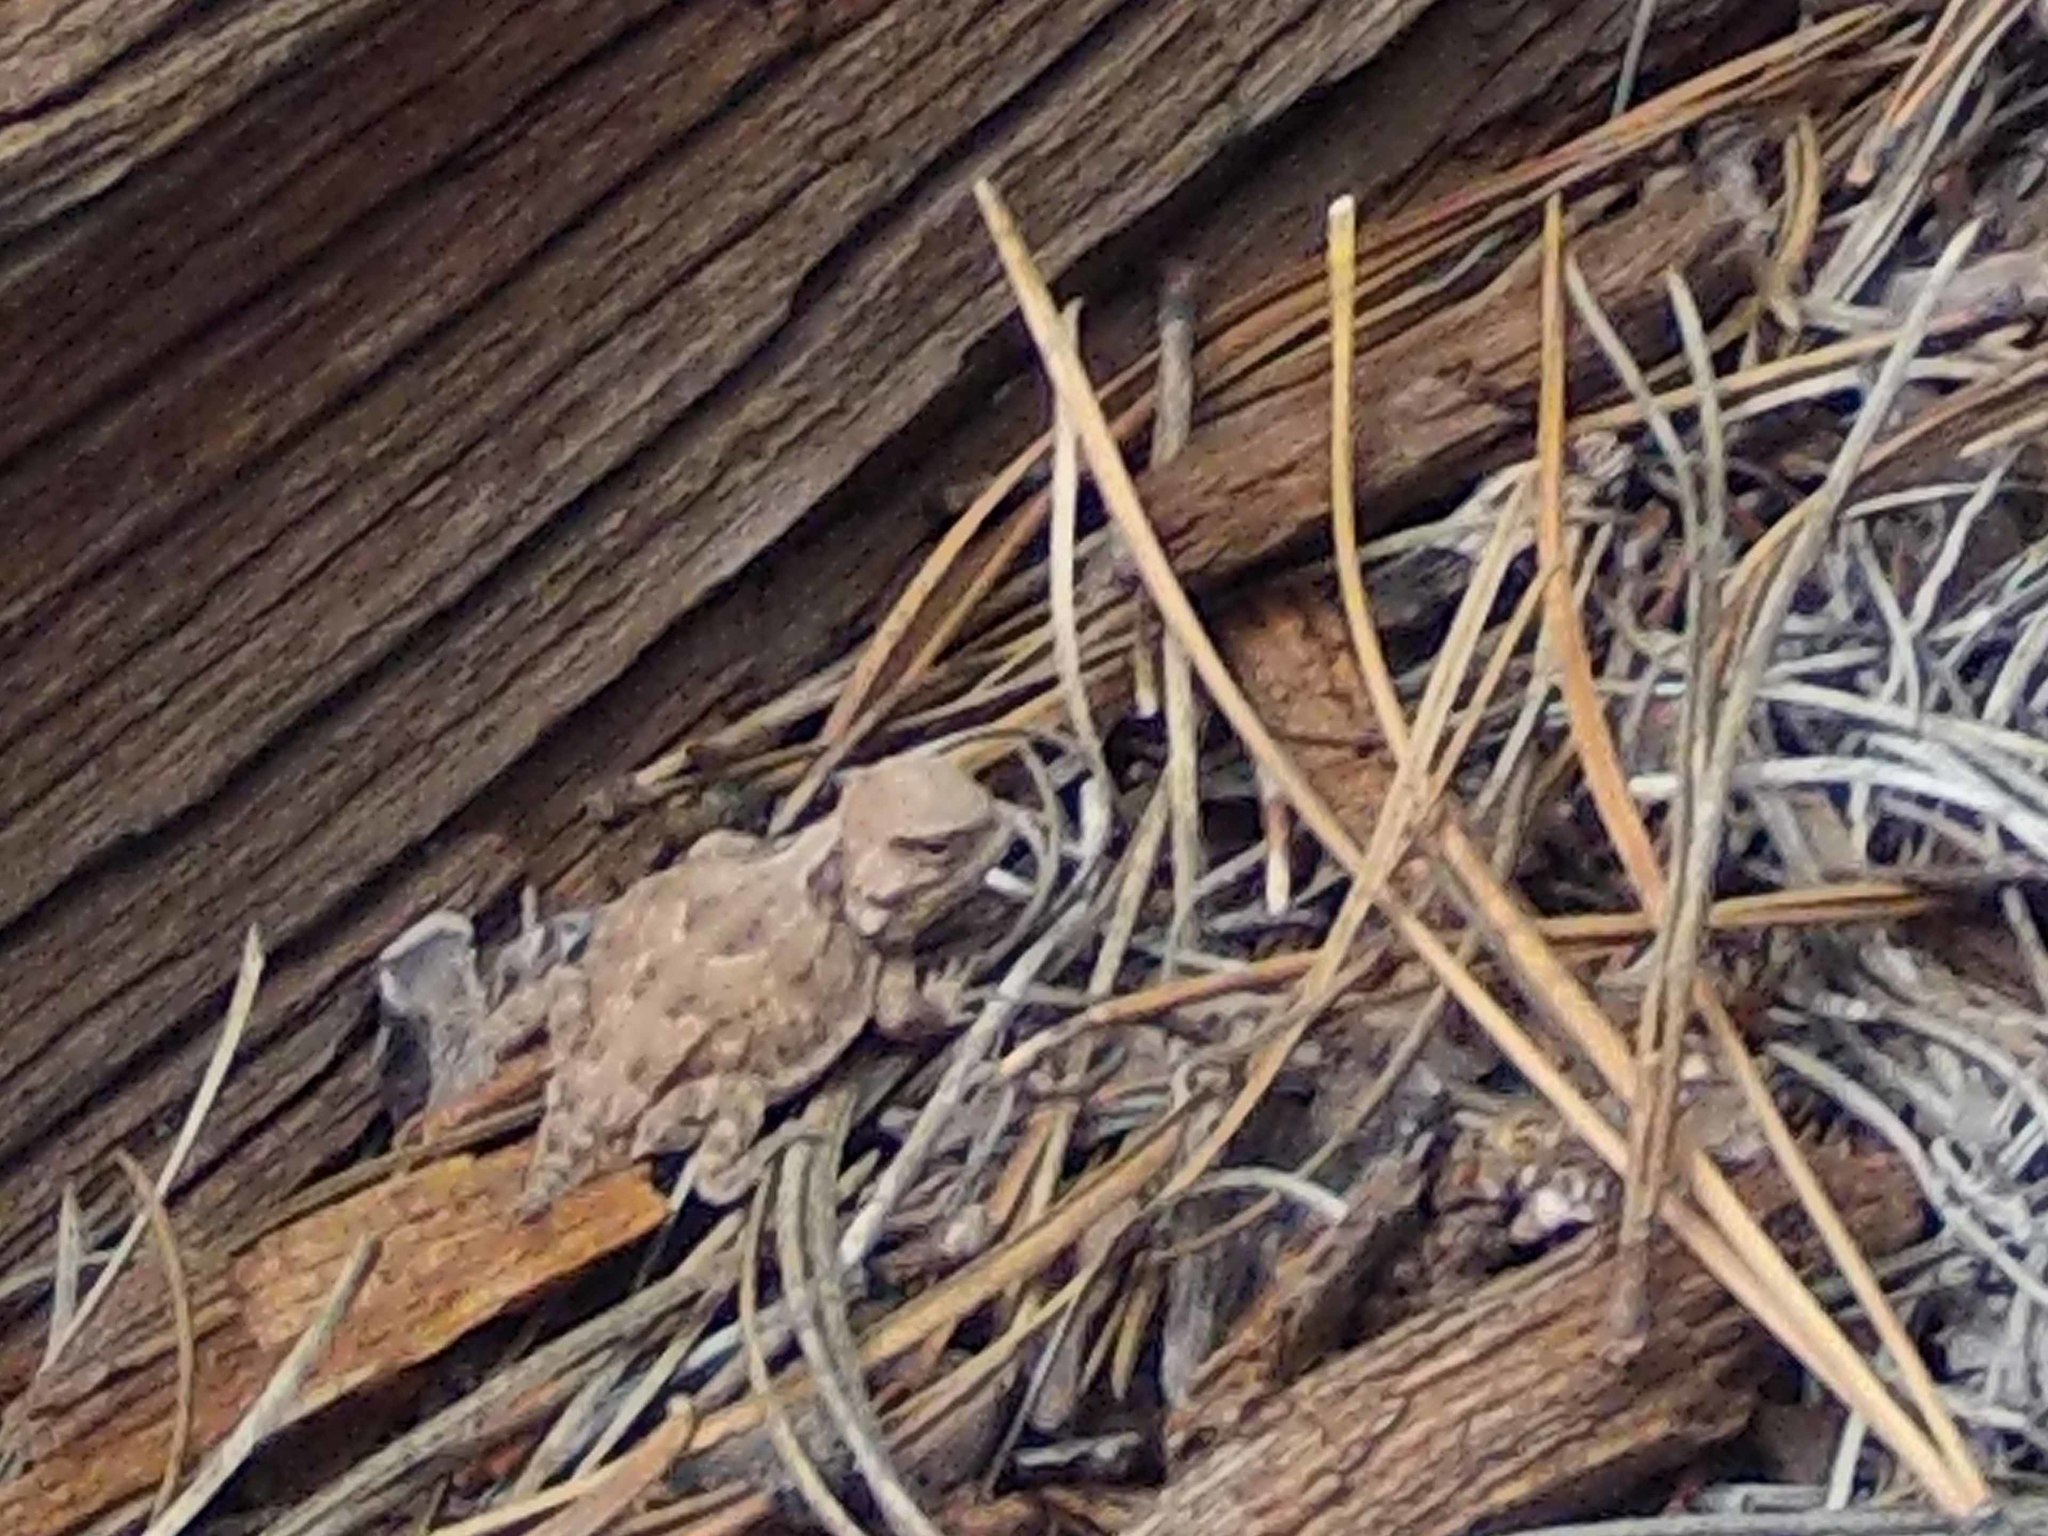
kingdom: Animalia
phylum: Chordata
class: Squamata
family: Phrynosomatidae
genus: Phrynosoma
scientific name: Phrynosoma hernandesi
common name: Greater short-horned lizard
